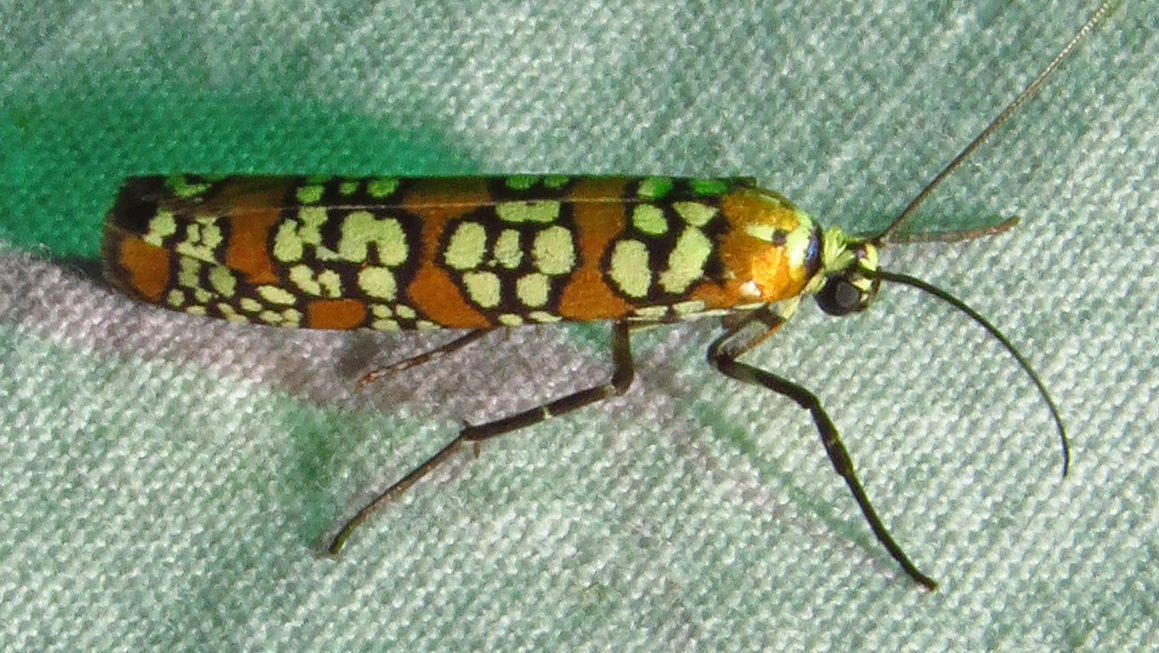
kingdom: Animalia
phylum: Arthropoda
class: Insecta
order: Lepidoptera
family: Attevidae
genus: Atteva
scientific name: Atteva punctella
